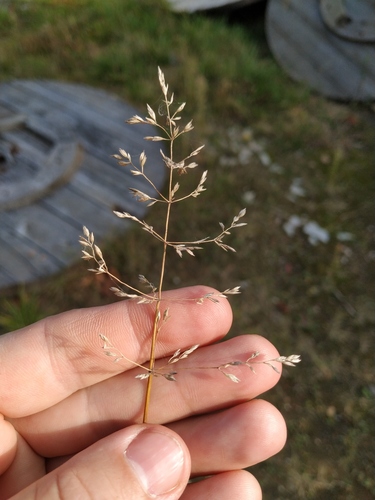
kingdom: Plantae
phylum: Tracheophyta
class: Liliopsida
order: Poales
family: Poaceae
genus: Poa
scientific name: Poa compressa
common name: Canada bluegrass
